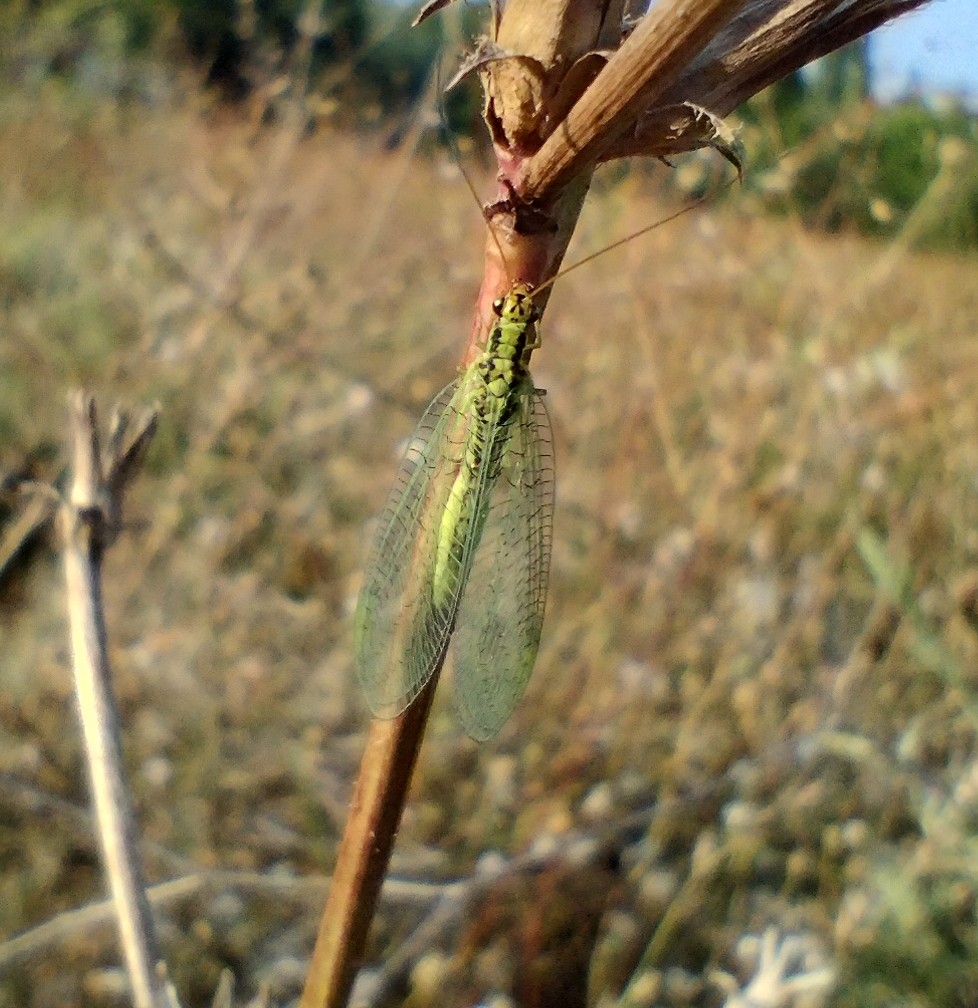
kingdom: Animalia
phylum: Arthropoda
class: Insecta
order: Neuroptera
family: Chrysopidae
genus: Chrysopa
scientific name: Chrysopa walkeri
